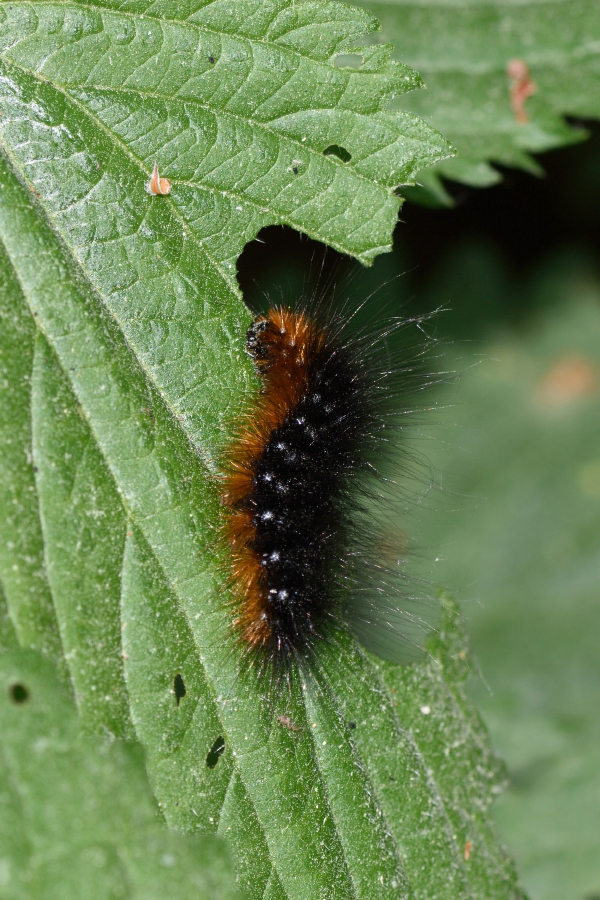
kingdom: Animalia
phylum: Arthropoda
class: Insecta
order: Lepidoptera
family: Erebidae
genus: Arctia
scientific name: Arctia caja
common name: Garden tiger
